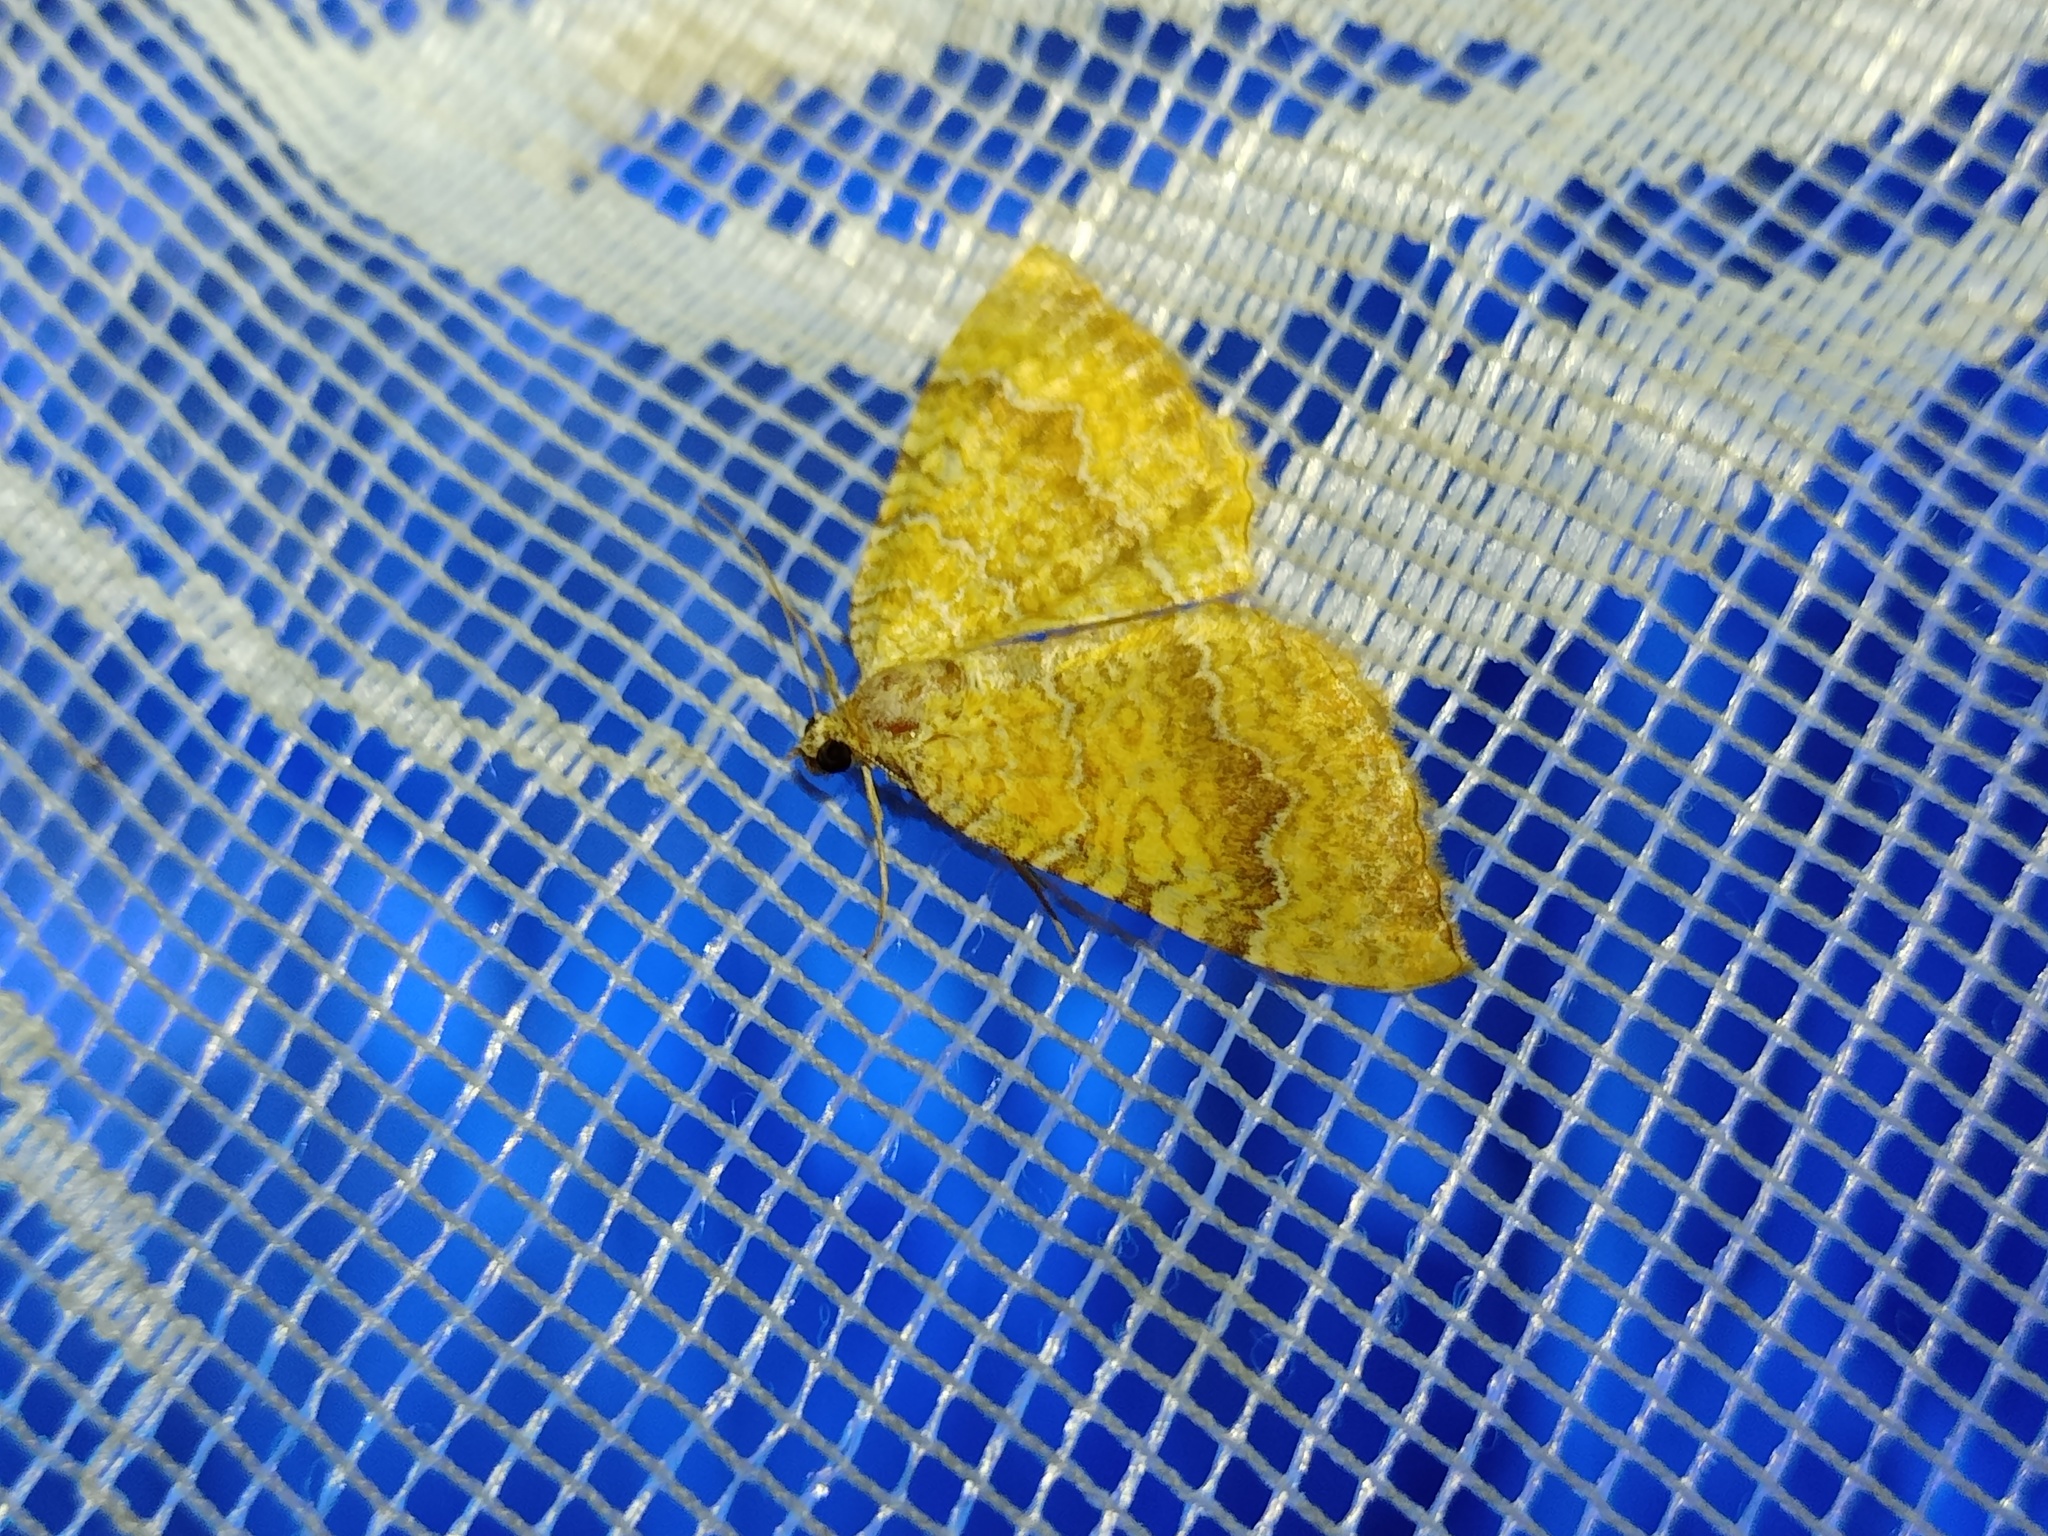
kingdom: Animalia
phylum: Arthropoda
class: Insecta
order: Lepidoptera
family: Geometridae
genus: Camptogramma
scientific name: Camptogramma bilineata
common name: Yellow shell
